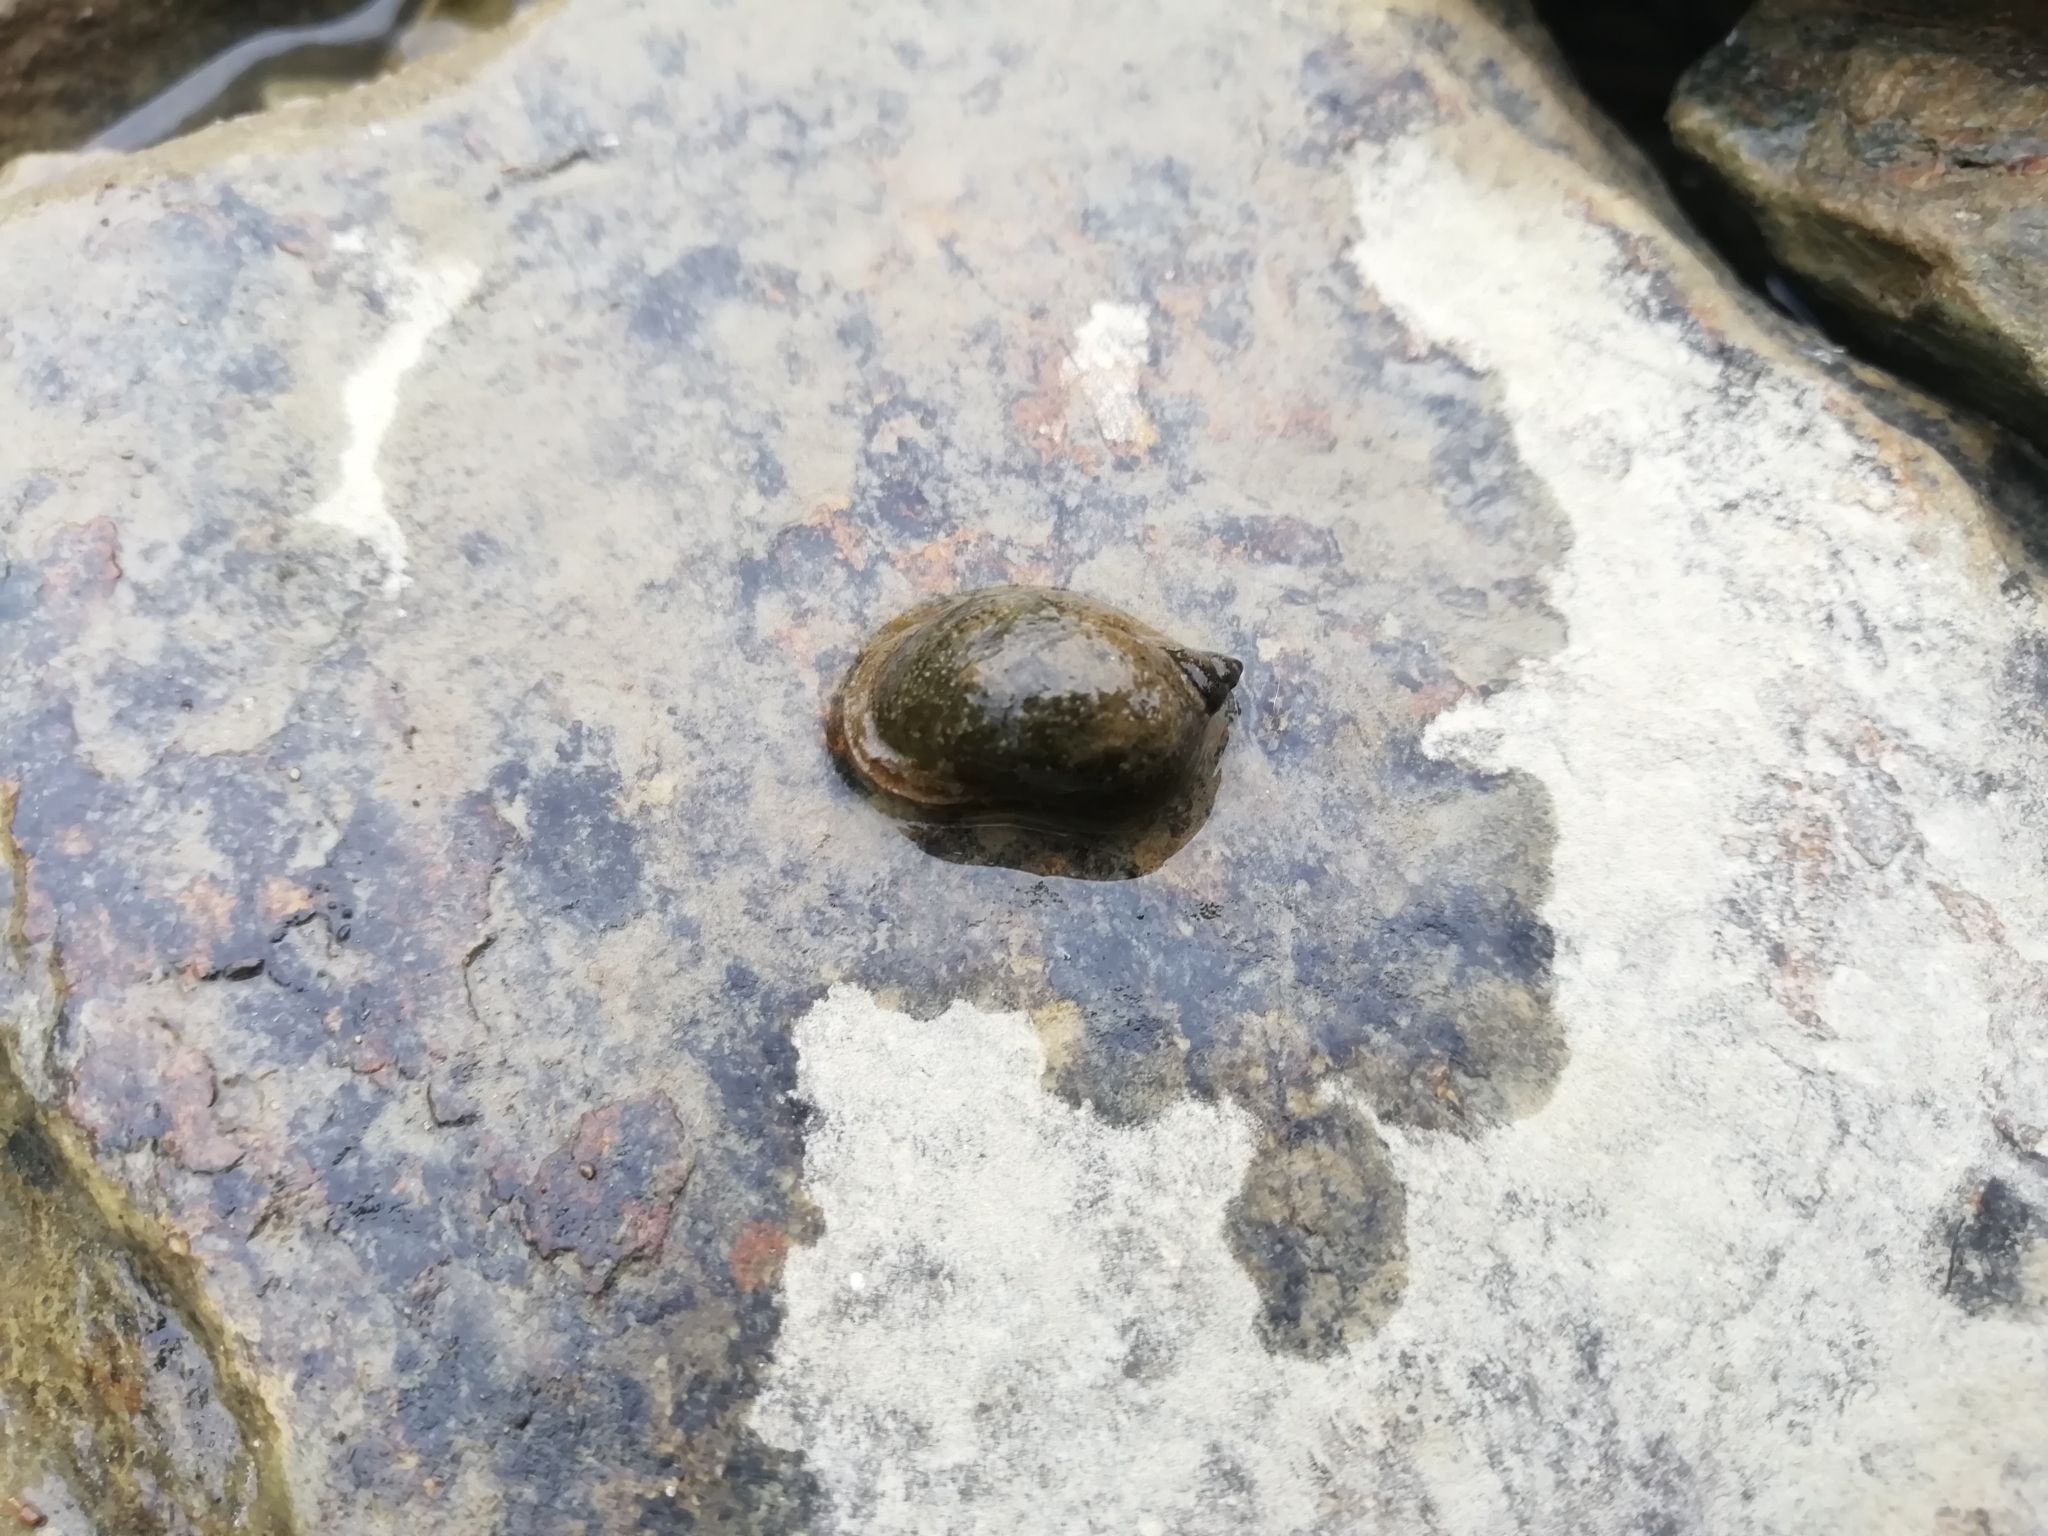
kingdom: Animalia
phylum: Mollusca
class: Gastropoda
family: Lymnaeidae
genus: Radix
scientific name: Radix auricularia
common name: Ear pond snail
